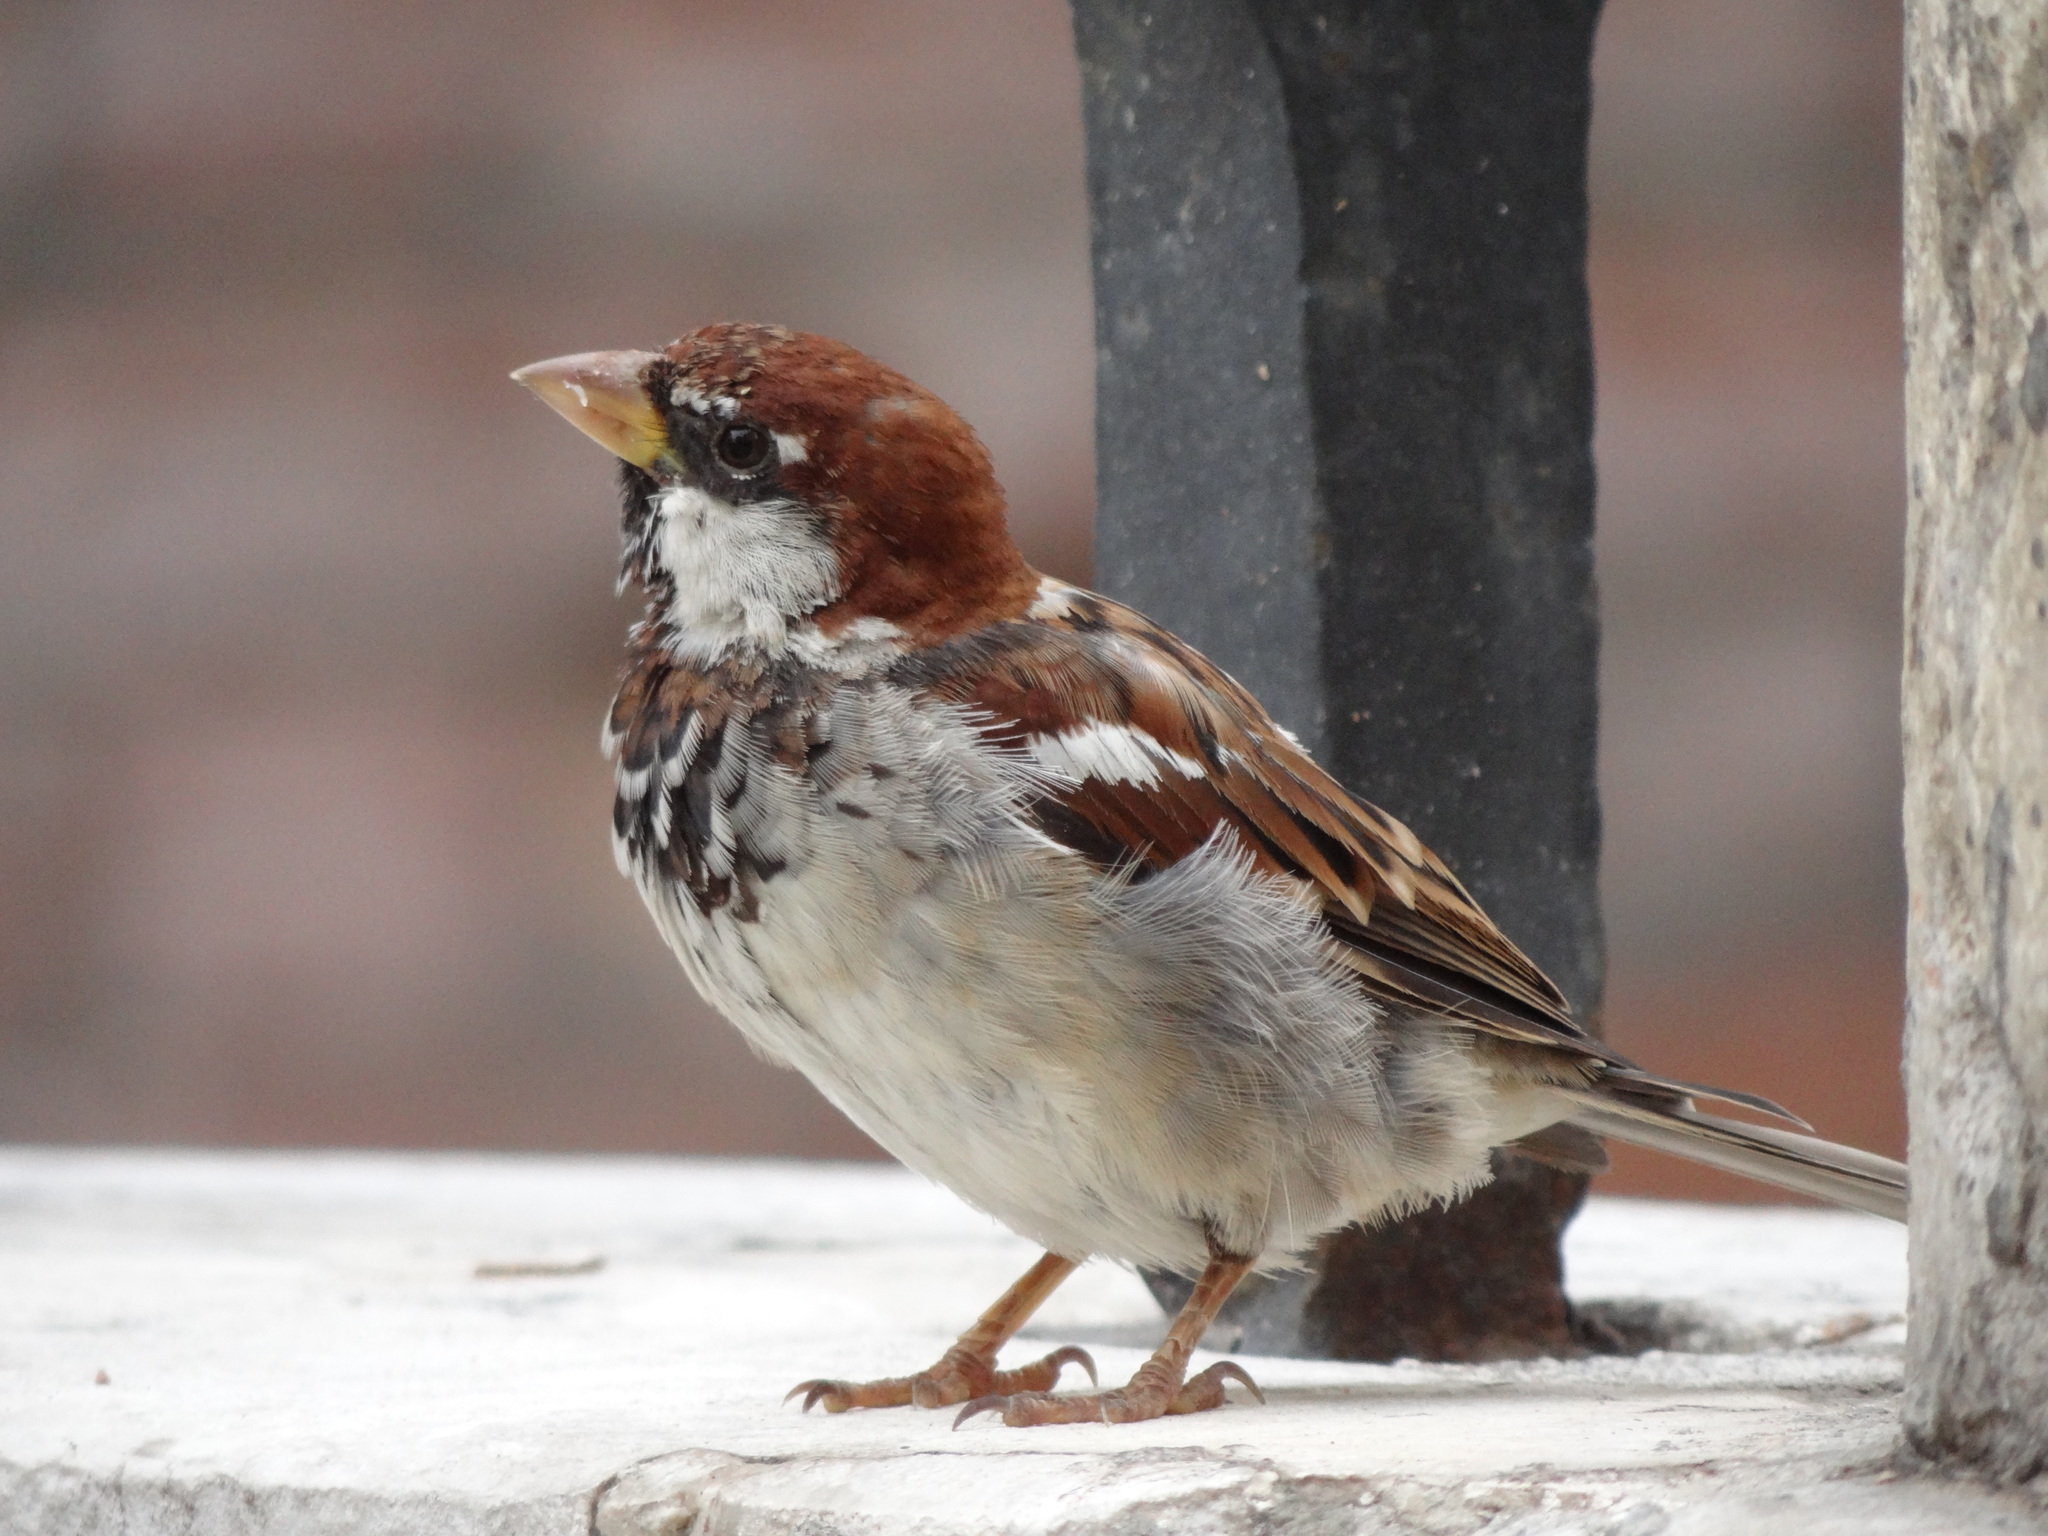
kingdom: Animalia
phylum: Chordata
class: Aves
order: Passeriformes
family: Passeridae
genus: Passer
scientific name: Passer italiae
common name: Italian sparrow
